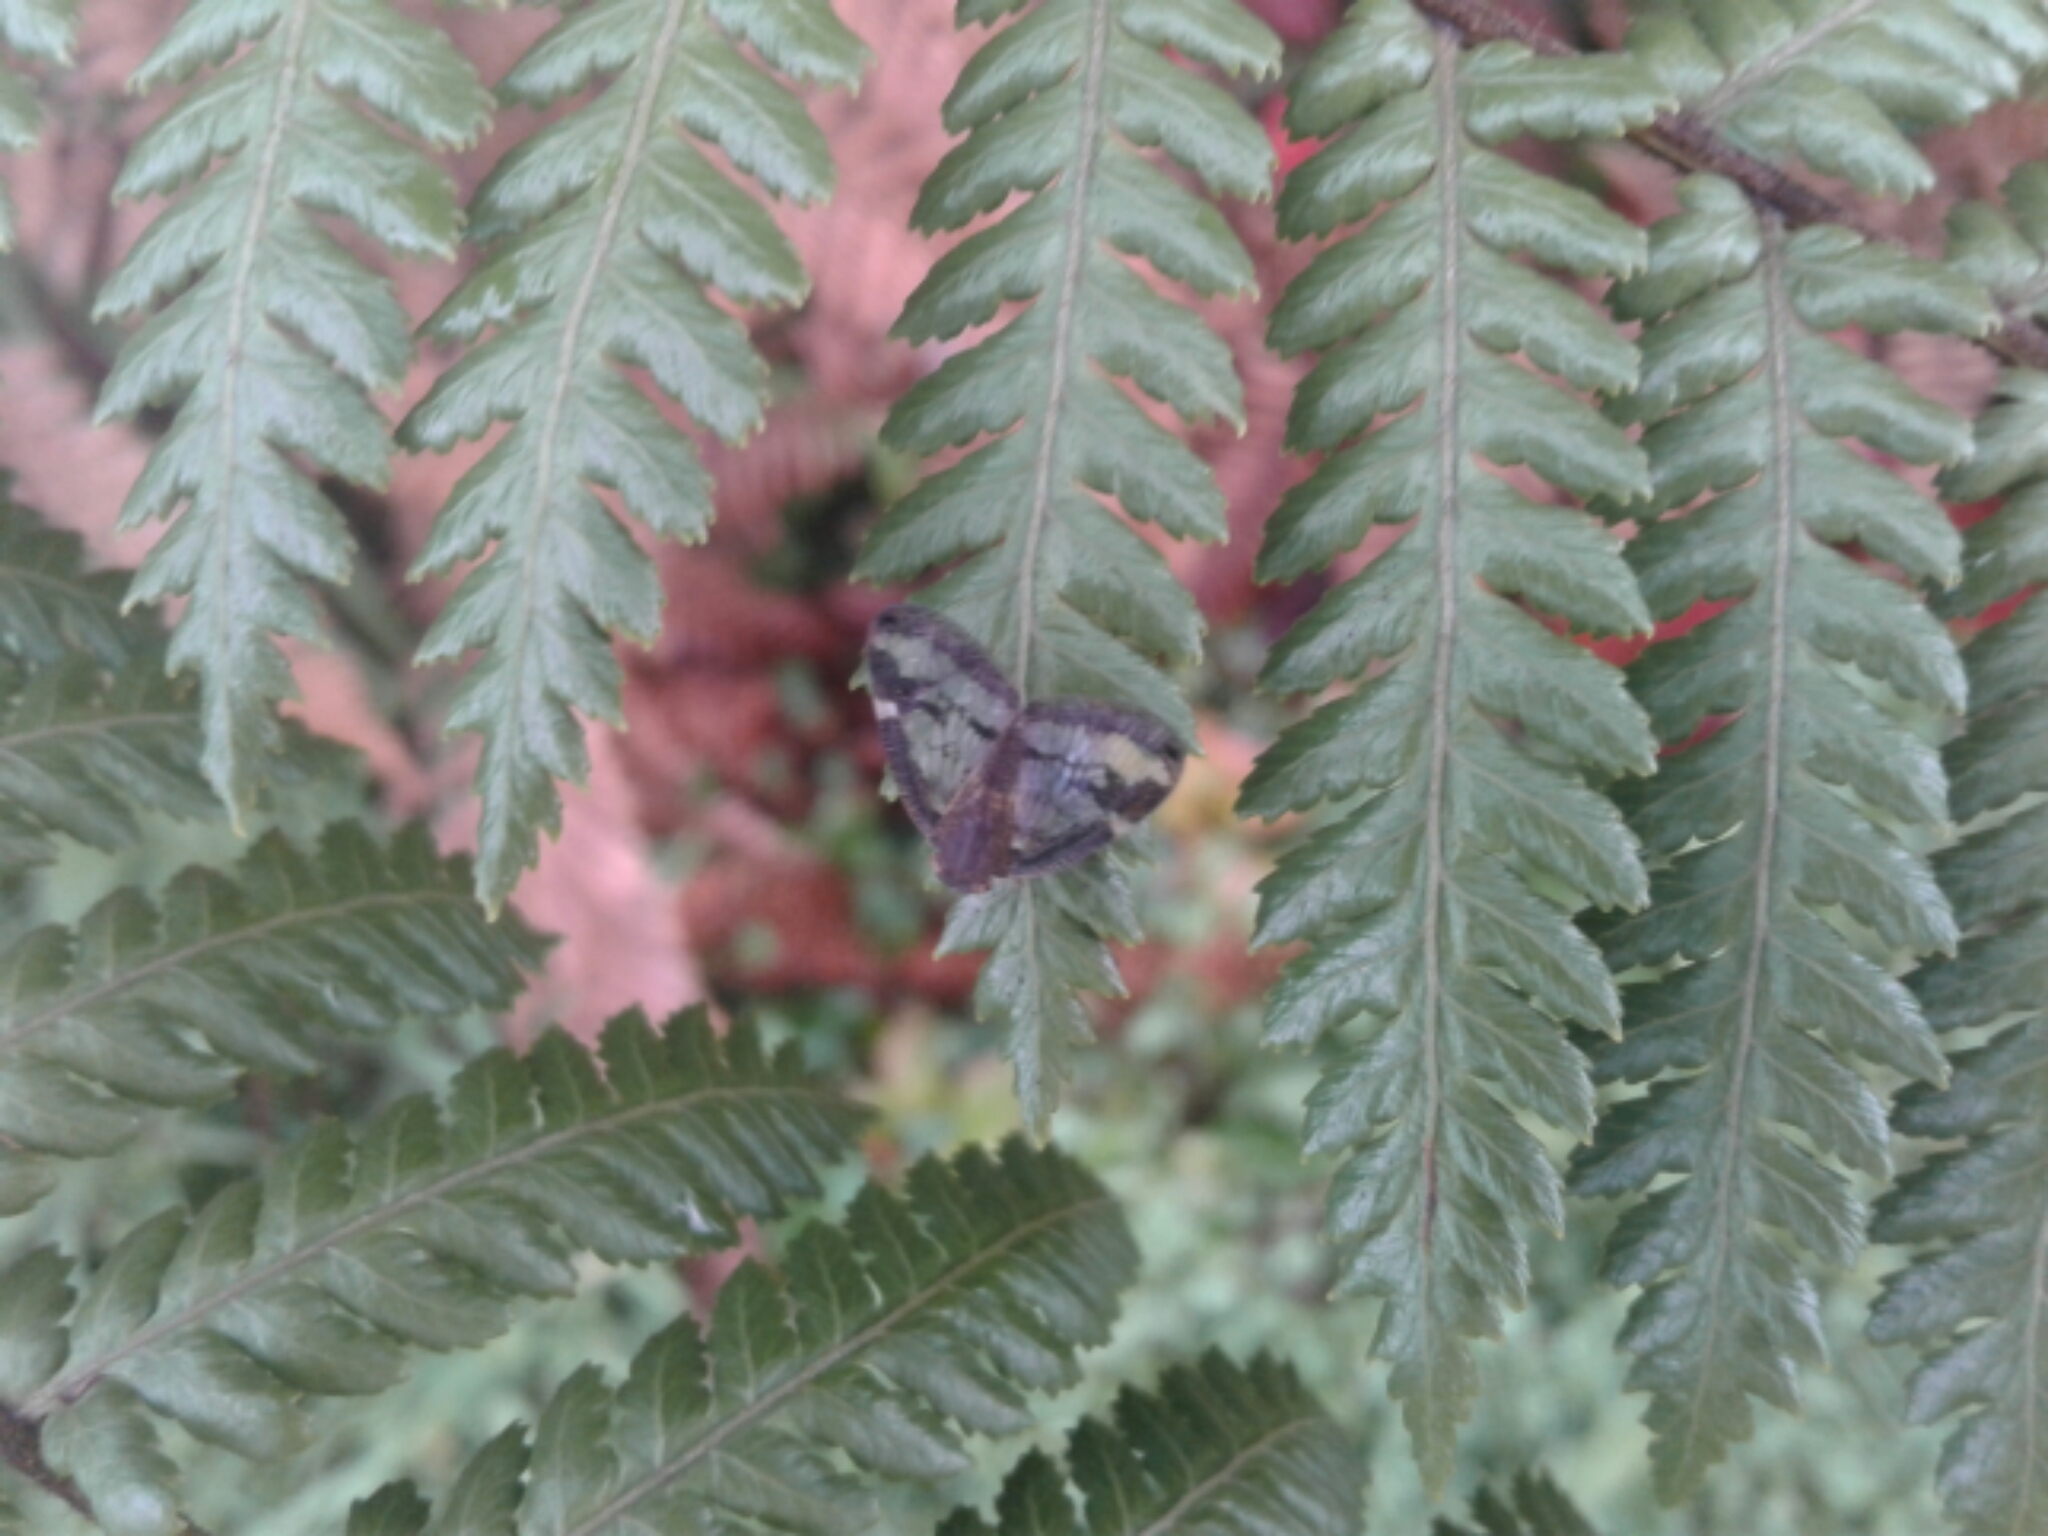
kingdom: Animalia
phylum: Arthropoda
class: Insecta
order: Hemiptera
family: Ricaniidae
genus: Scolypopa
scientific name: Scolypopa australis
